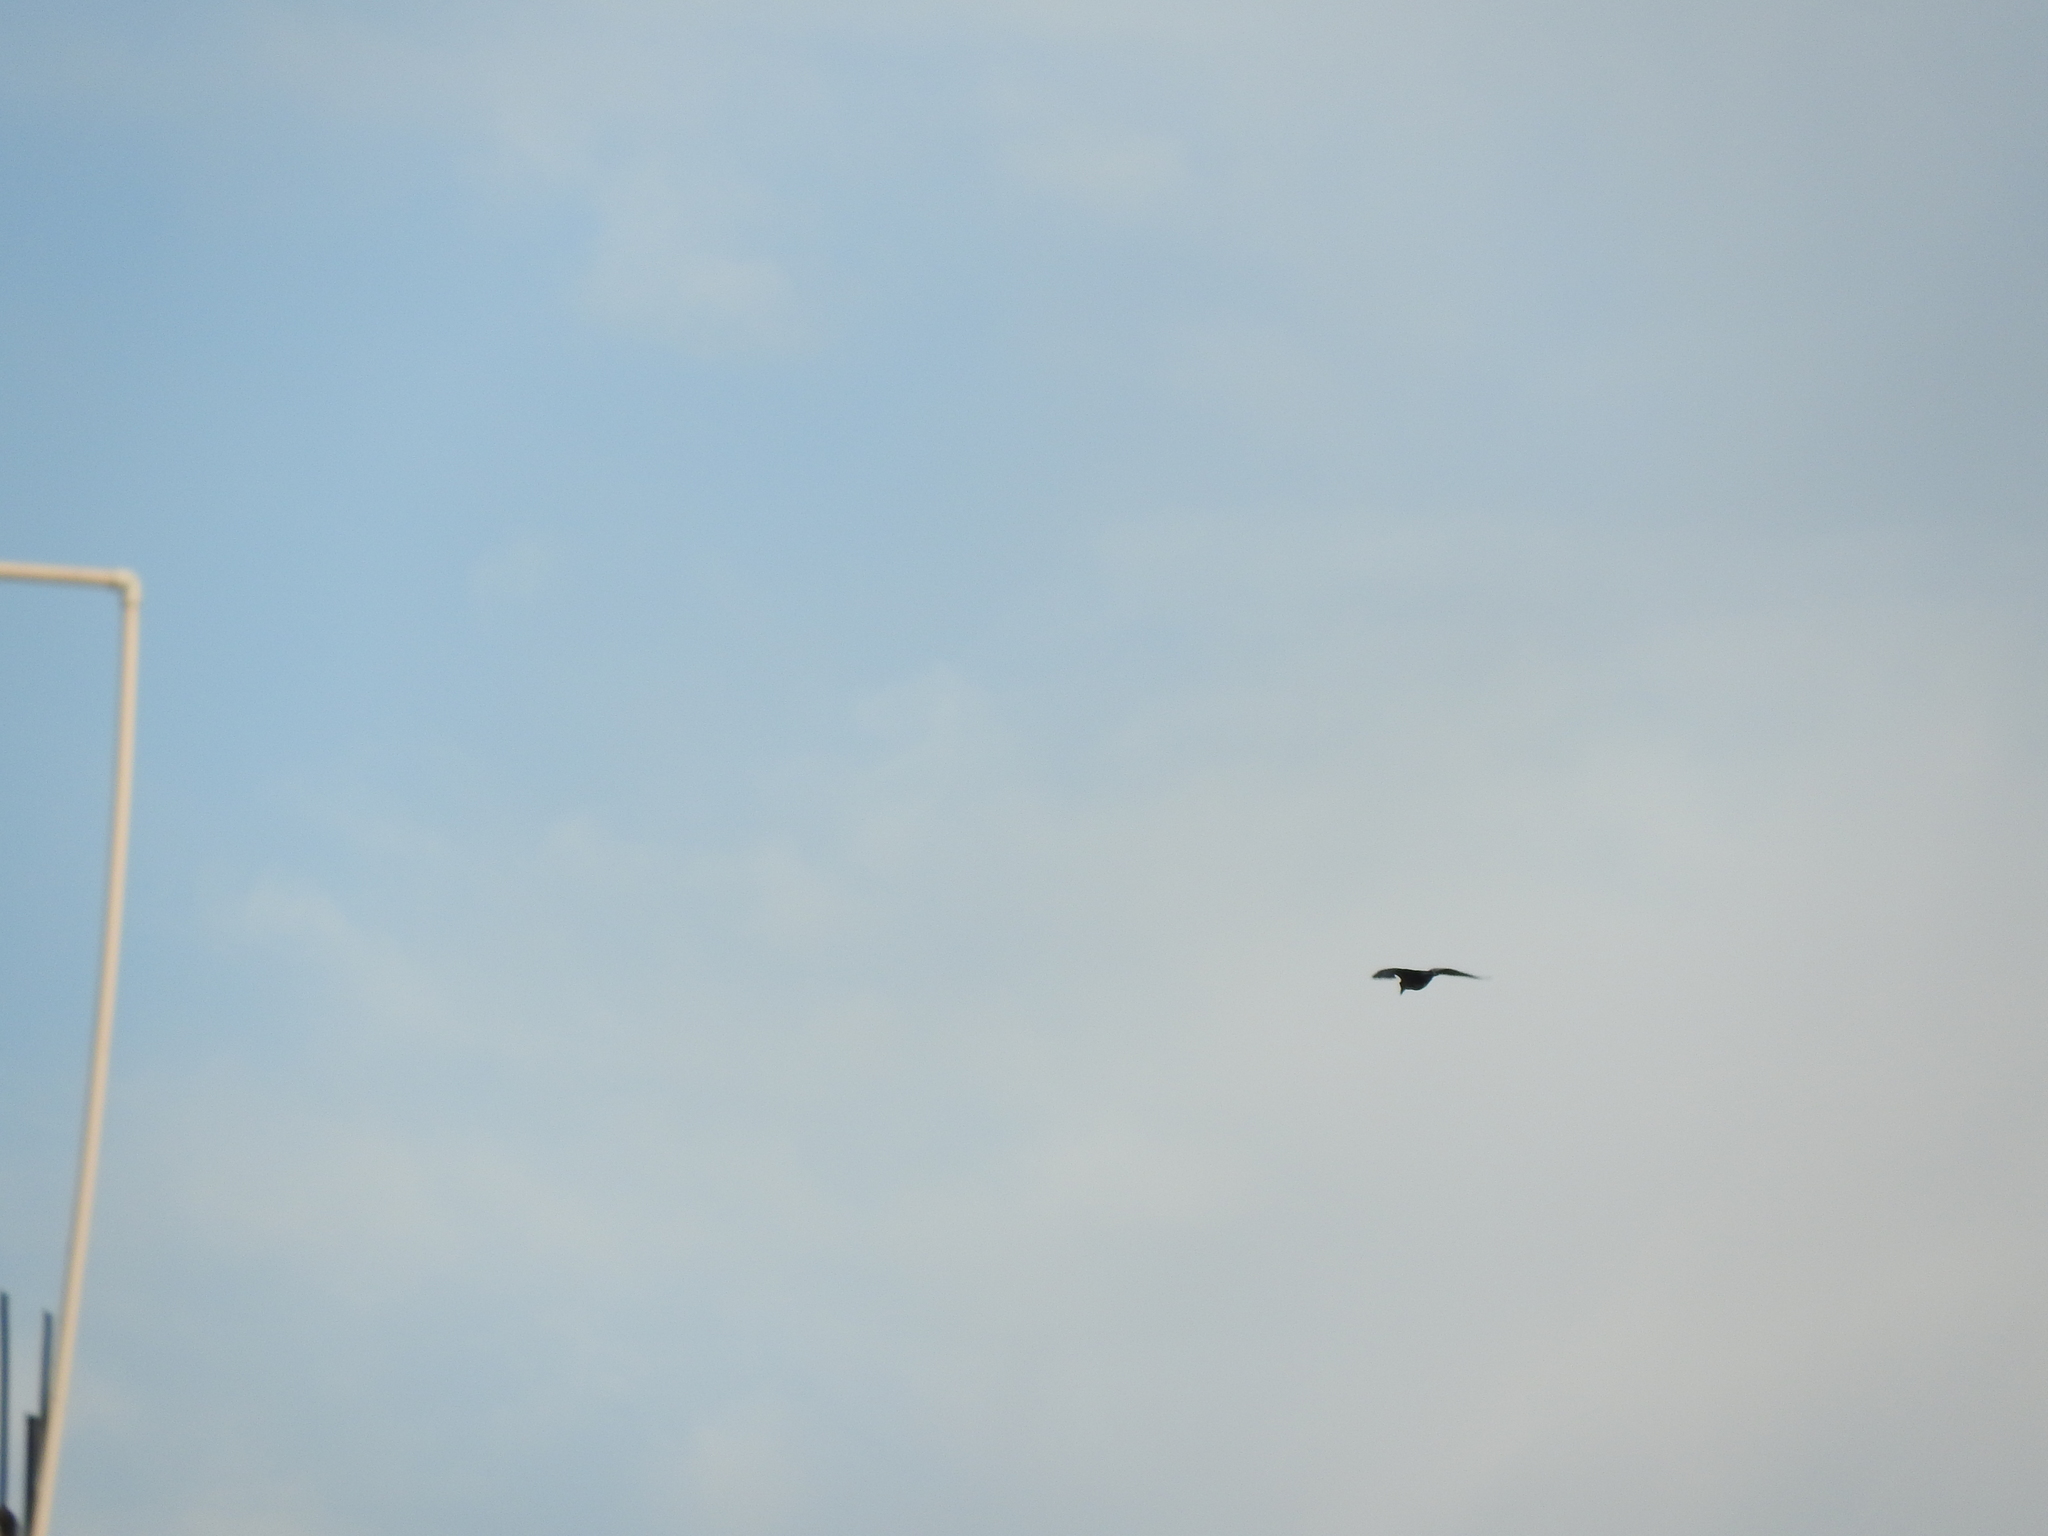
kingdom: Animalia
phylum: Chordata
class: Aves
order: Passeriformes
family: Corvidae
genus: Corvus
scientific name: Corvus corax
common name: Common raven
